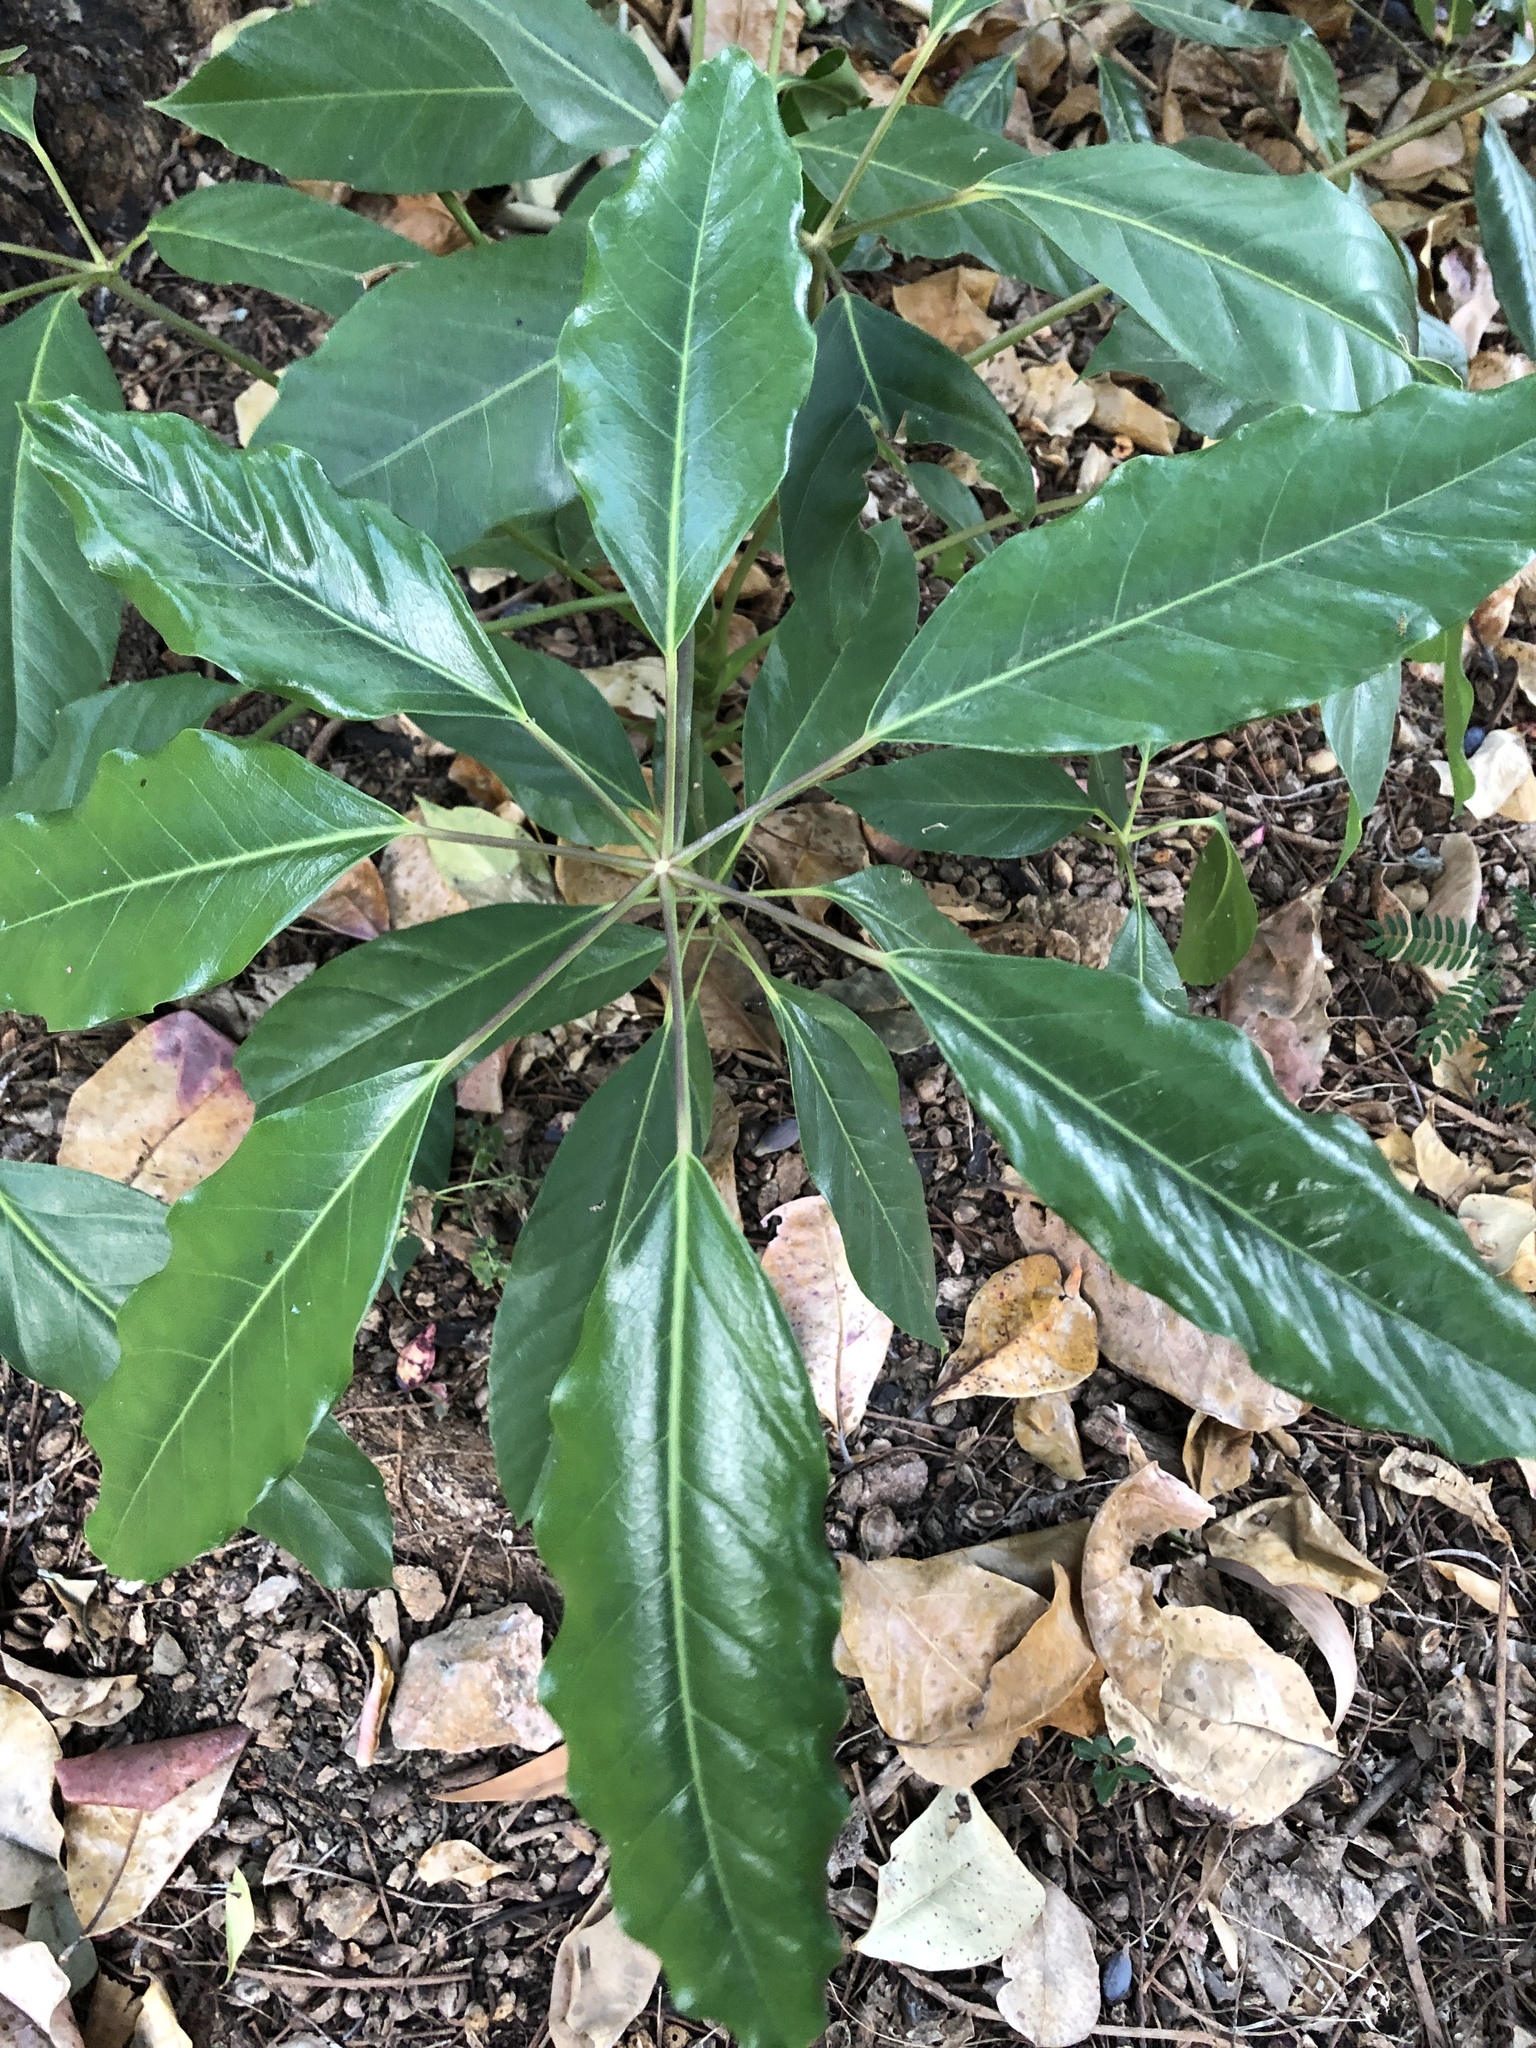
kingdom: Plantae
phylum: Tracheophyta
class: Magnoliopsida
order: Apiales
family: Araliaceae
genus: Heptapleurum
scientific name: Heptapleurum actinophyllum
